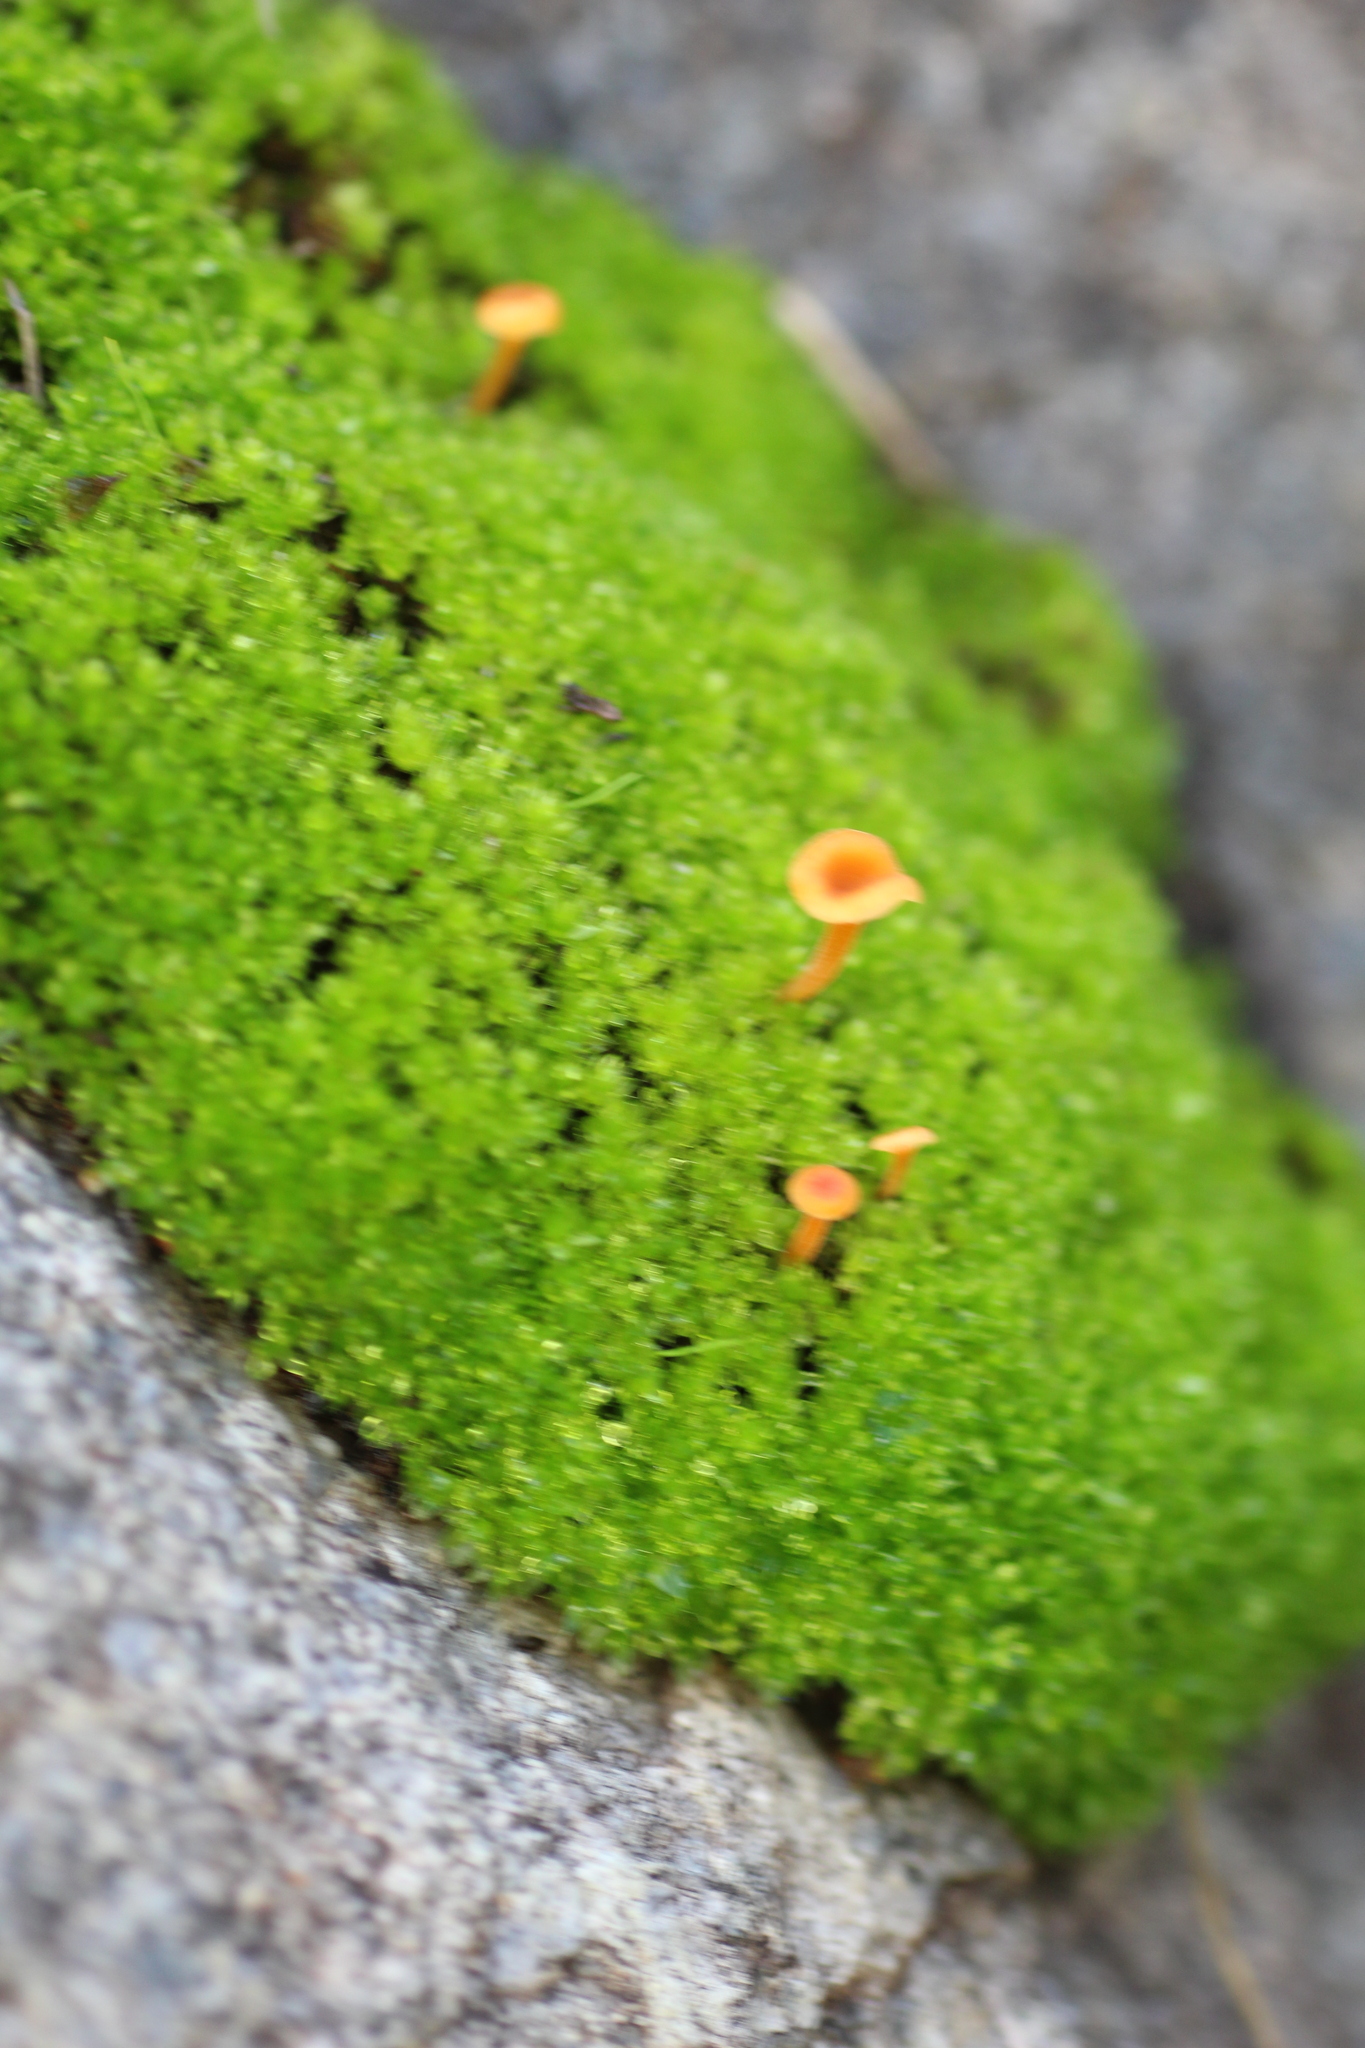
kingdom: Fungi
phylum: Basidiomycota
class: Agaricomycetes
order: Hymenochaetales
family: Rickenellaceae
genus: Rickenella
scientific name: Rickenella fibula
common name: Orange mosscap
